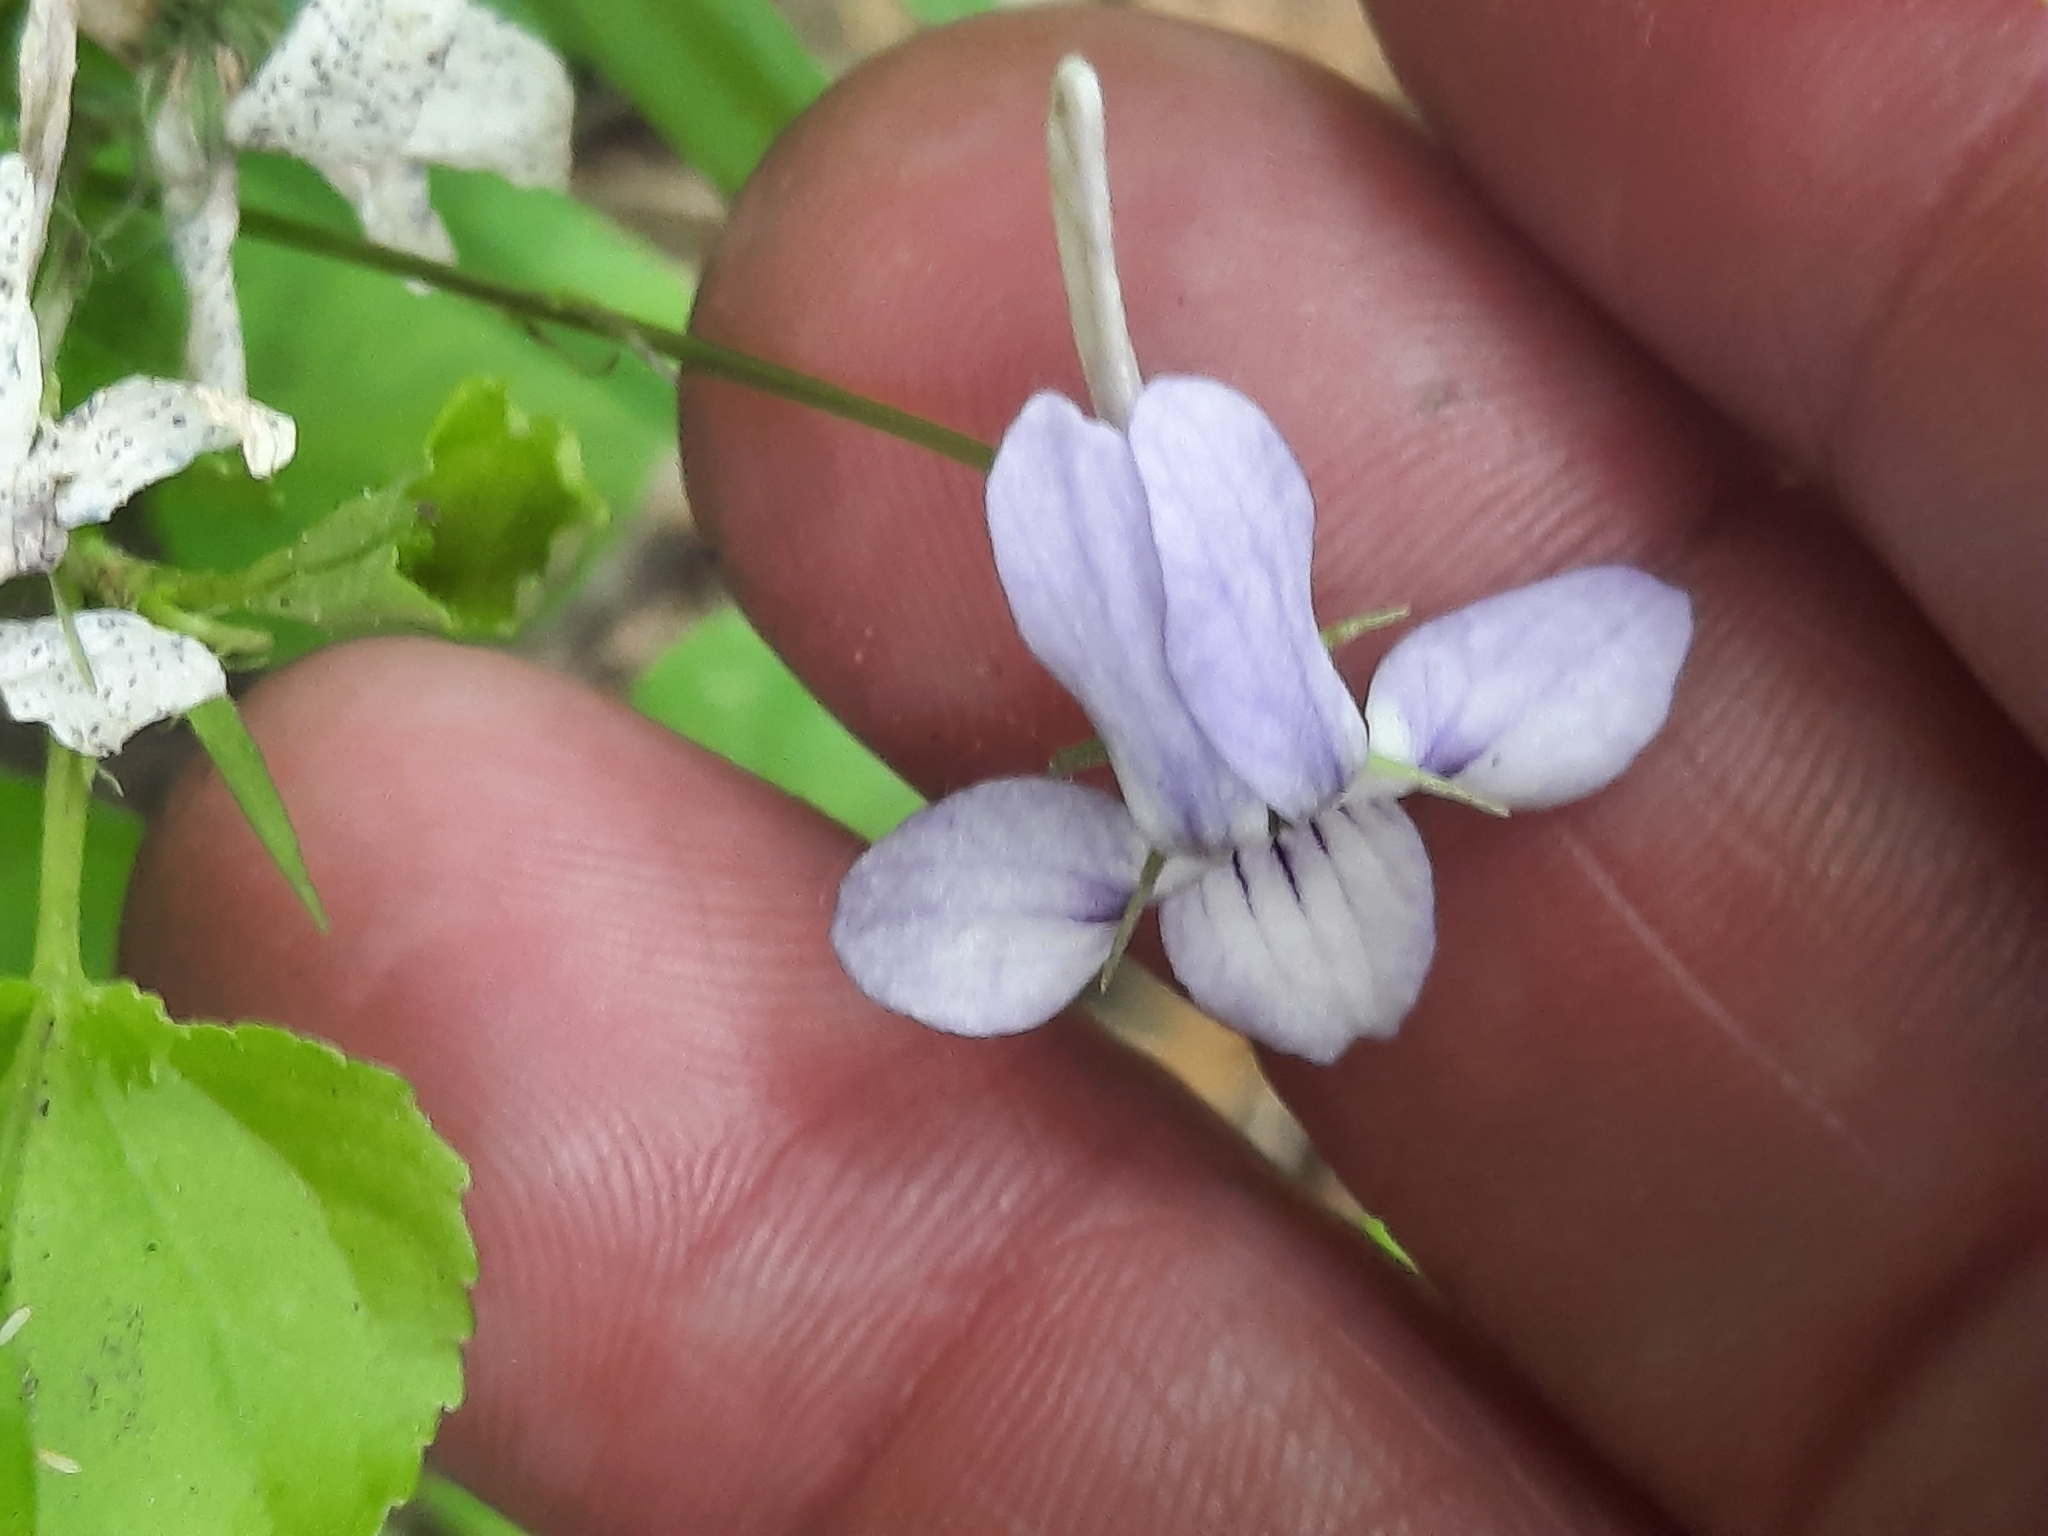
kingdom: Plantae
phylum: Tracheophyta
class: Magnoliopsida
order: Malpighiales
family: Violaceae
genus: Viola
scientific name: Viola rostrata
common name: Long-spur violet
